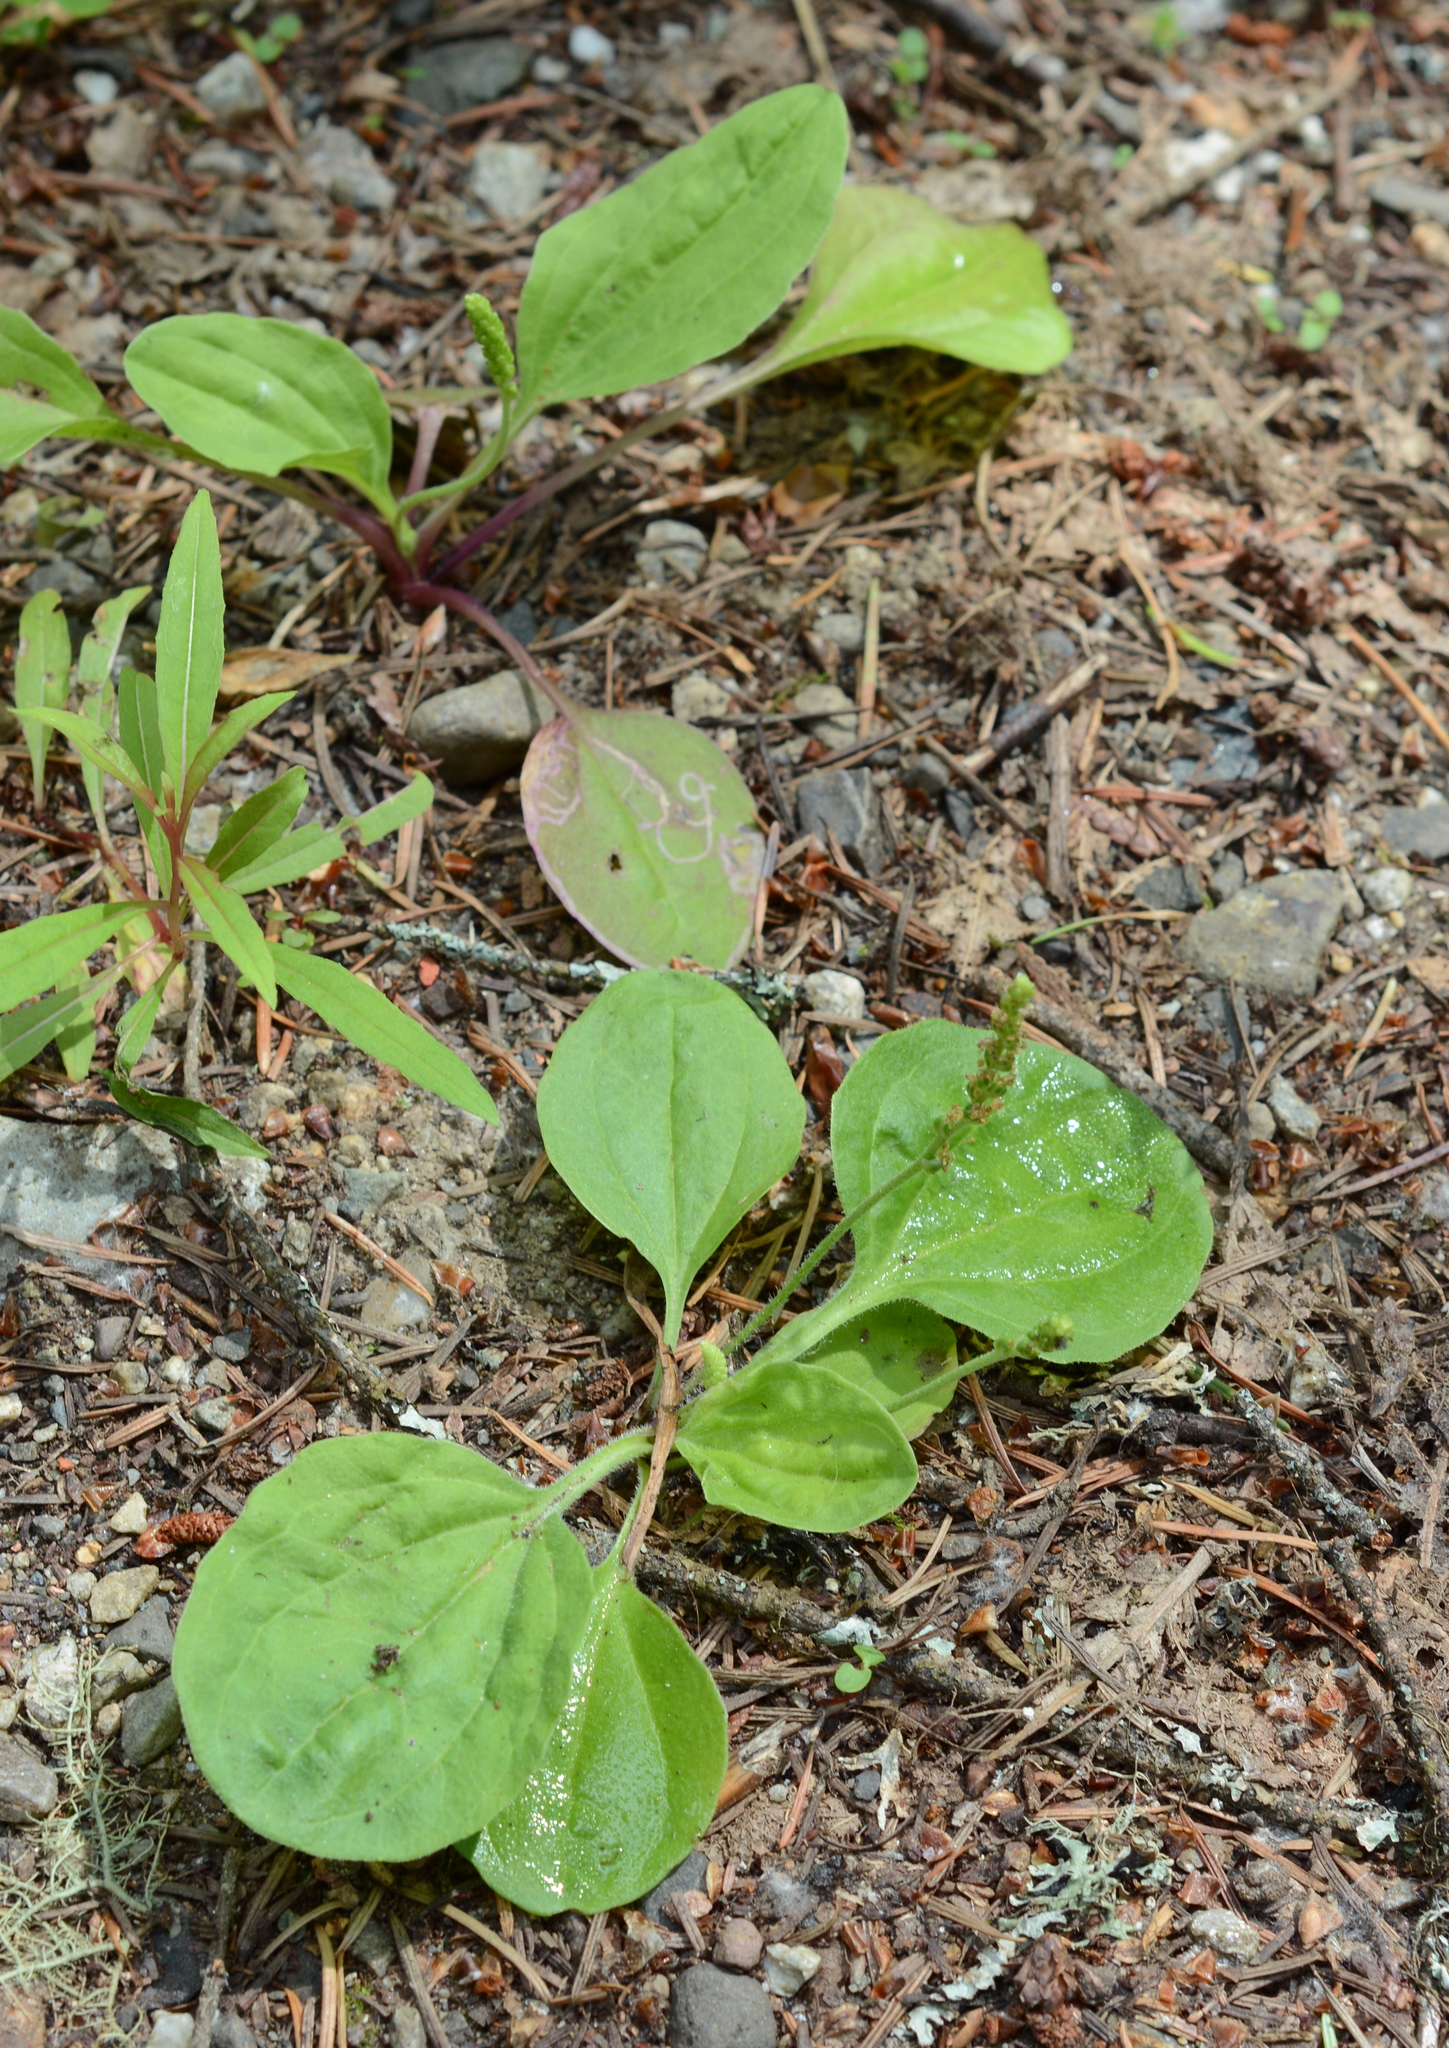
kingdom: Plantae
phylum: Tracheophyta
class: Magnoliopsida
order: Lamiales
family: Plantaginaceae
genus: Plantago
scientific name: Plantago major
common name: Common plantain
